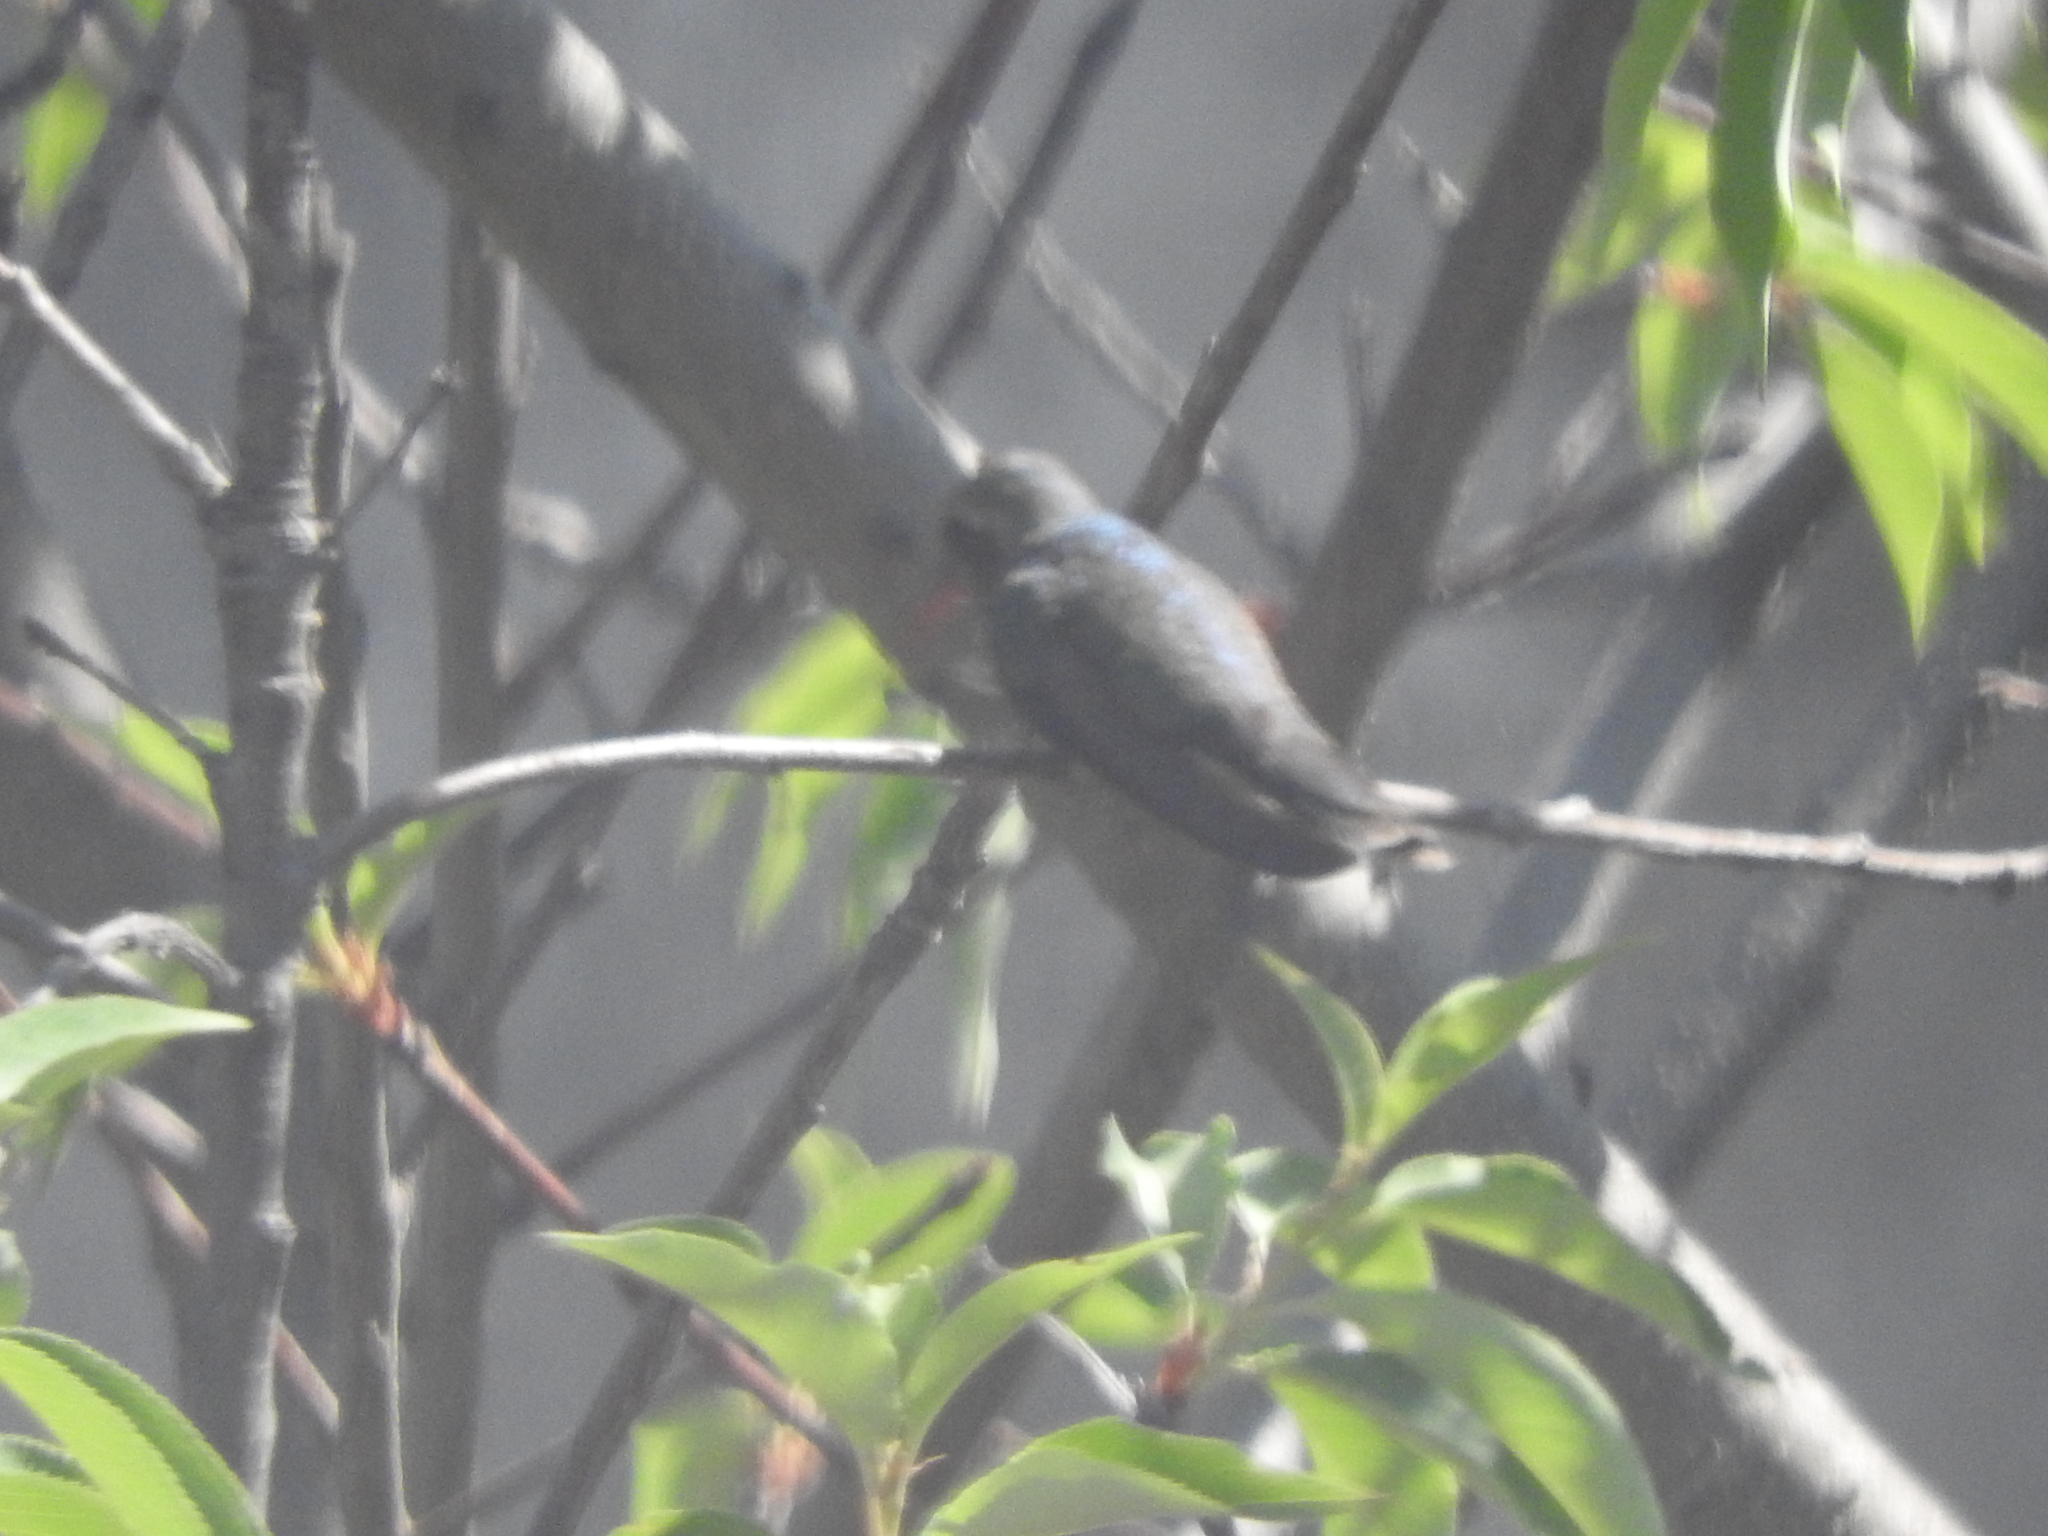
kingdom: Animalia
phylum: Chordata
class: Aves
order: Apodiformes
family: Trochilidae
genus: Cynanthus
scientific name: Cynanthus latirostris
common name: Broad-billed hummingbird
